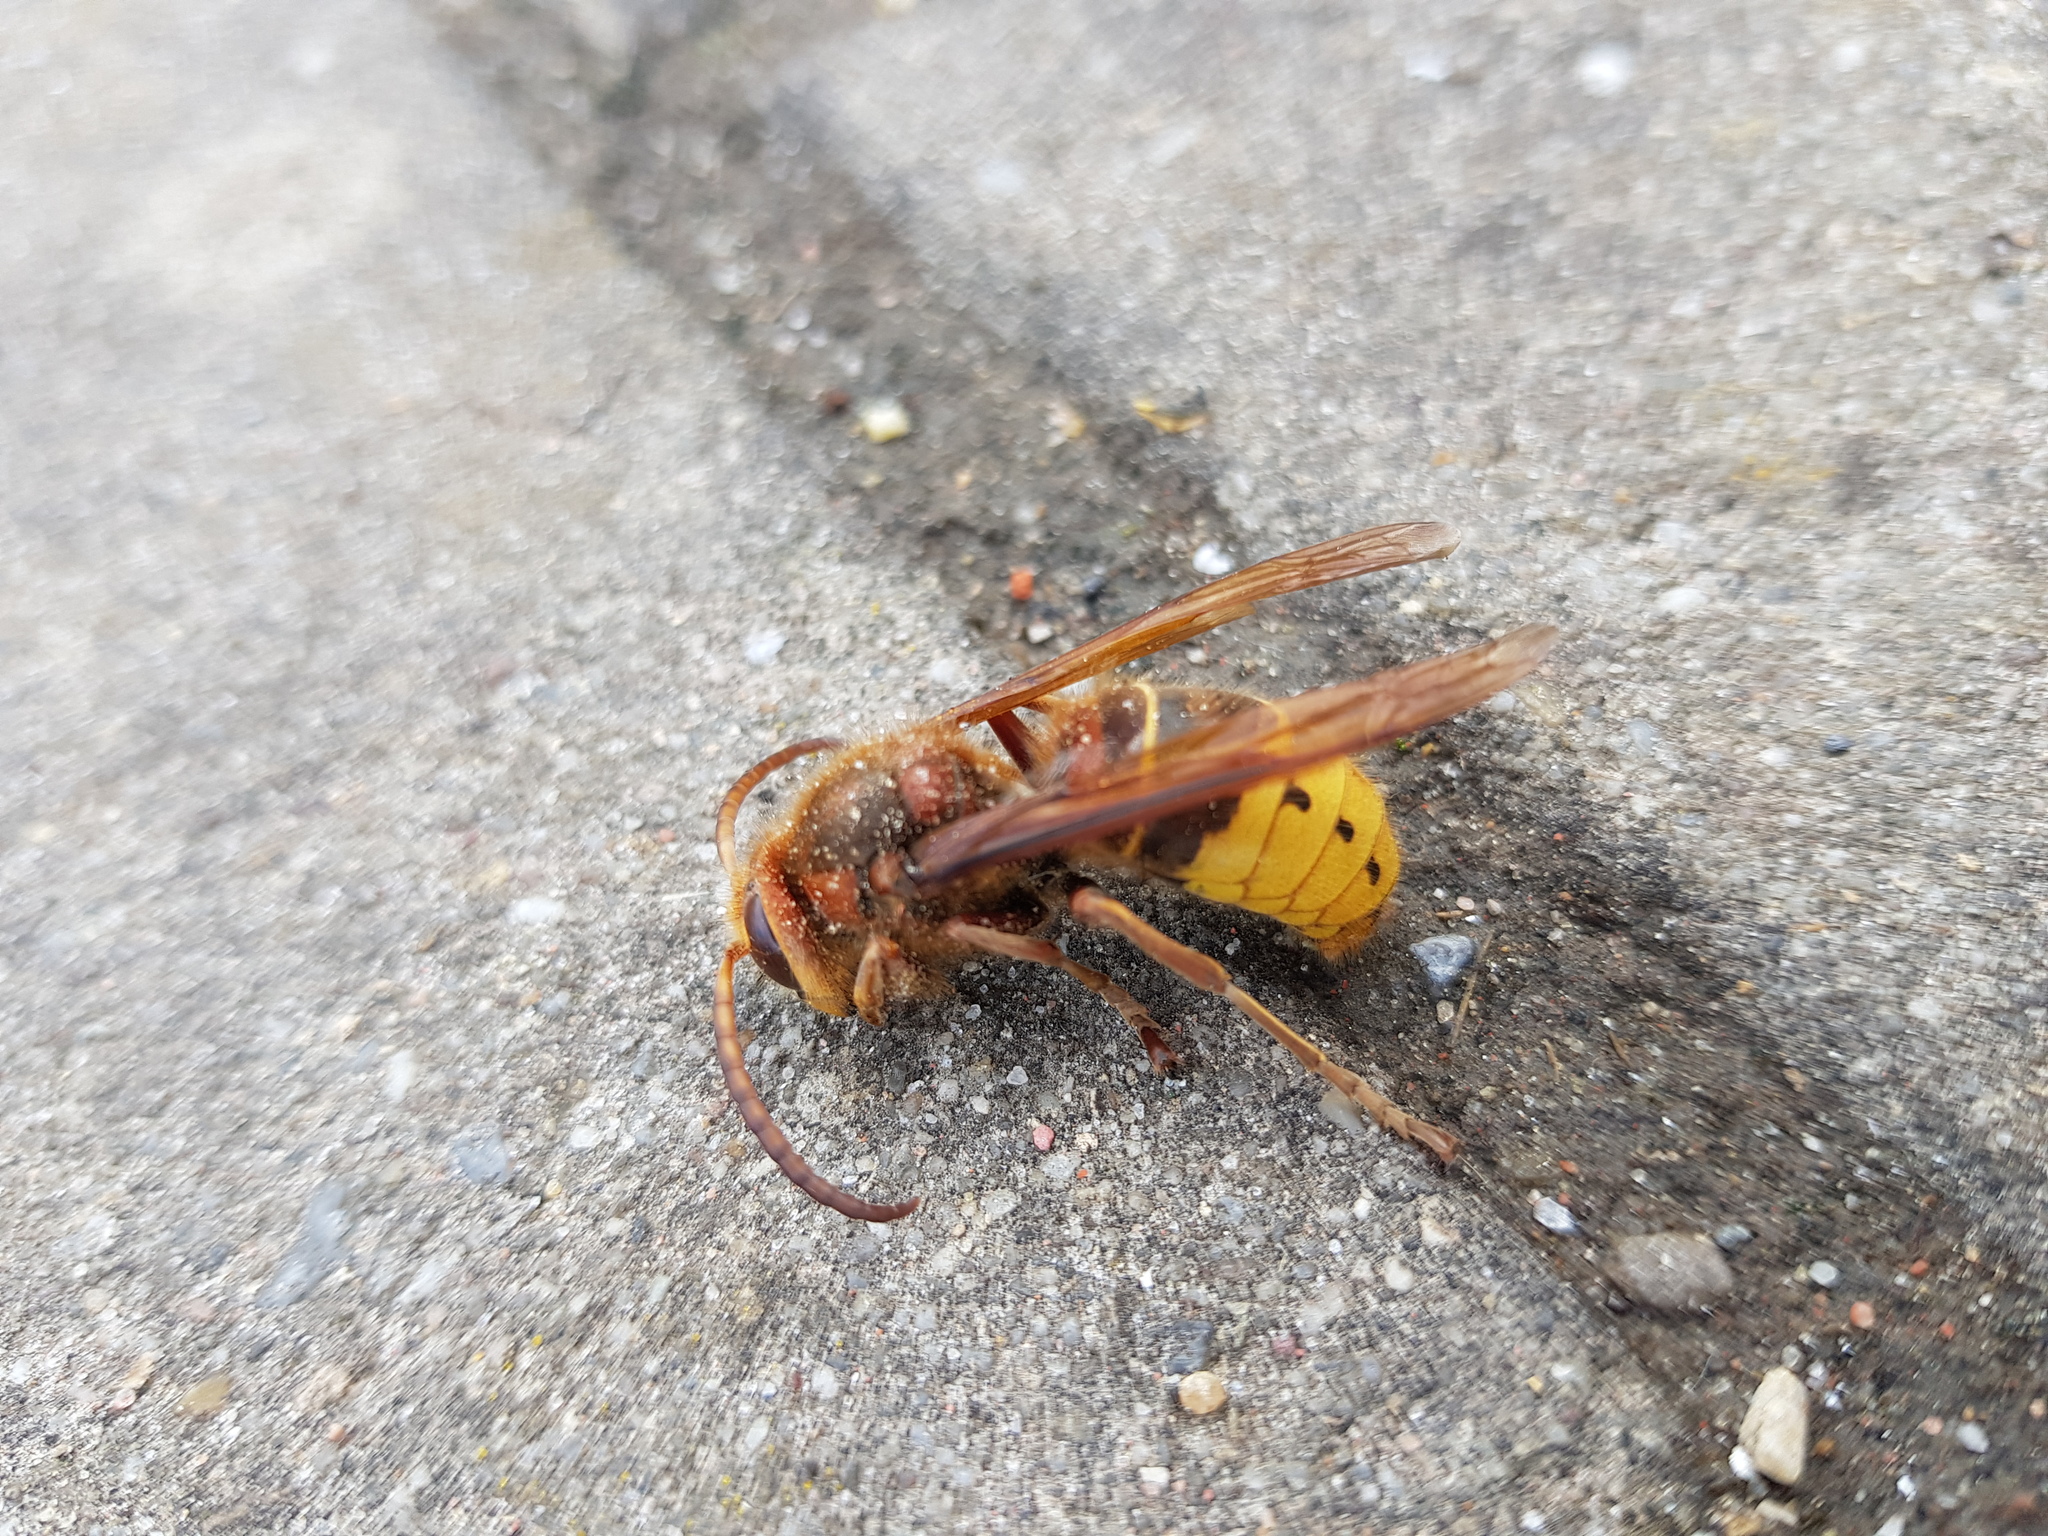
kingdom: Animalia
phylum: Arthropoda
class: Insecta
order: Hymenoptera
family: Vespidae
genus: Vespa
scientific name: Vespa crabro
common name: Hornet
